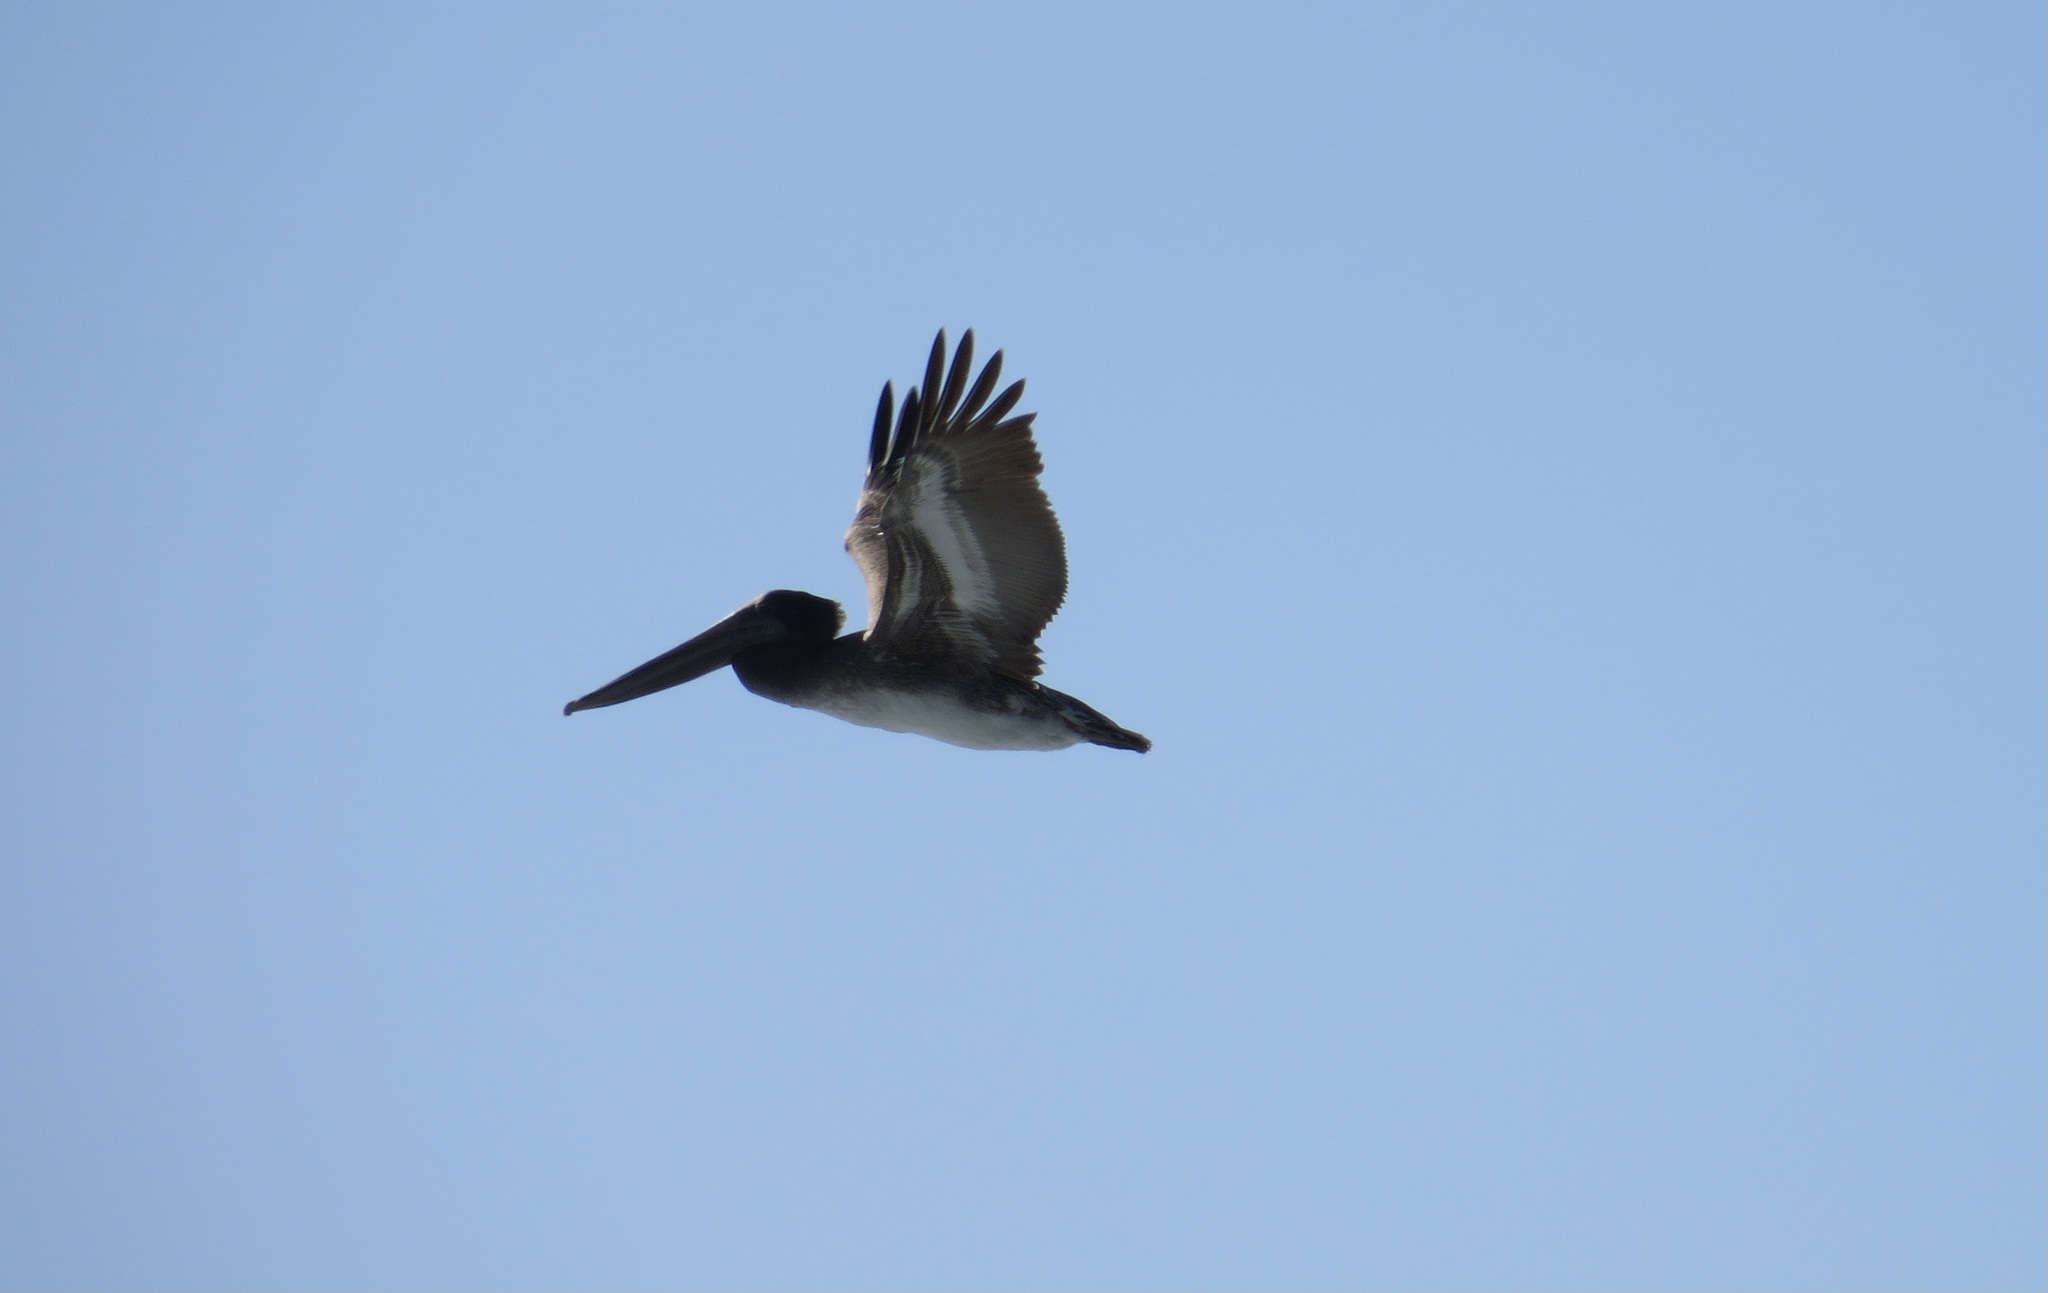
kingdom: Animalia
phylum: Chordata
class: Aves
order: Pelecaniformes
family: Pelecanidae
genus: Pelecanus
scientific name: Pelecanus occidentalis
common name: Brown pelican
